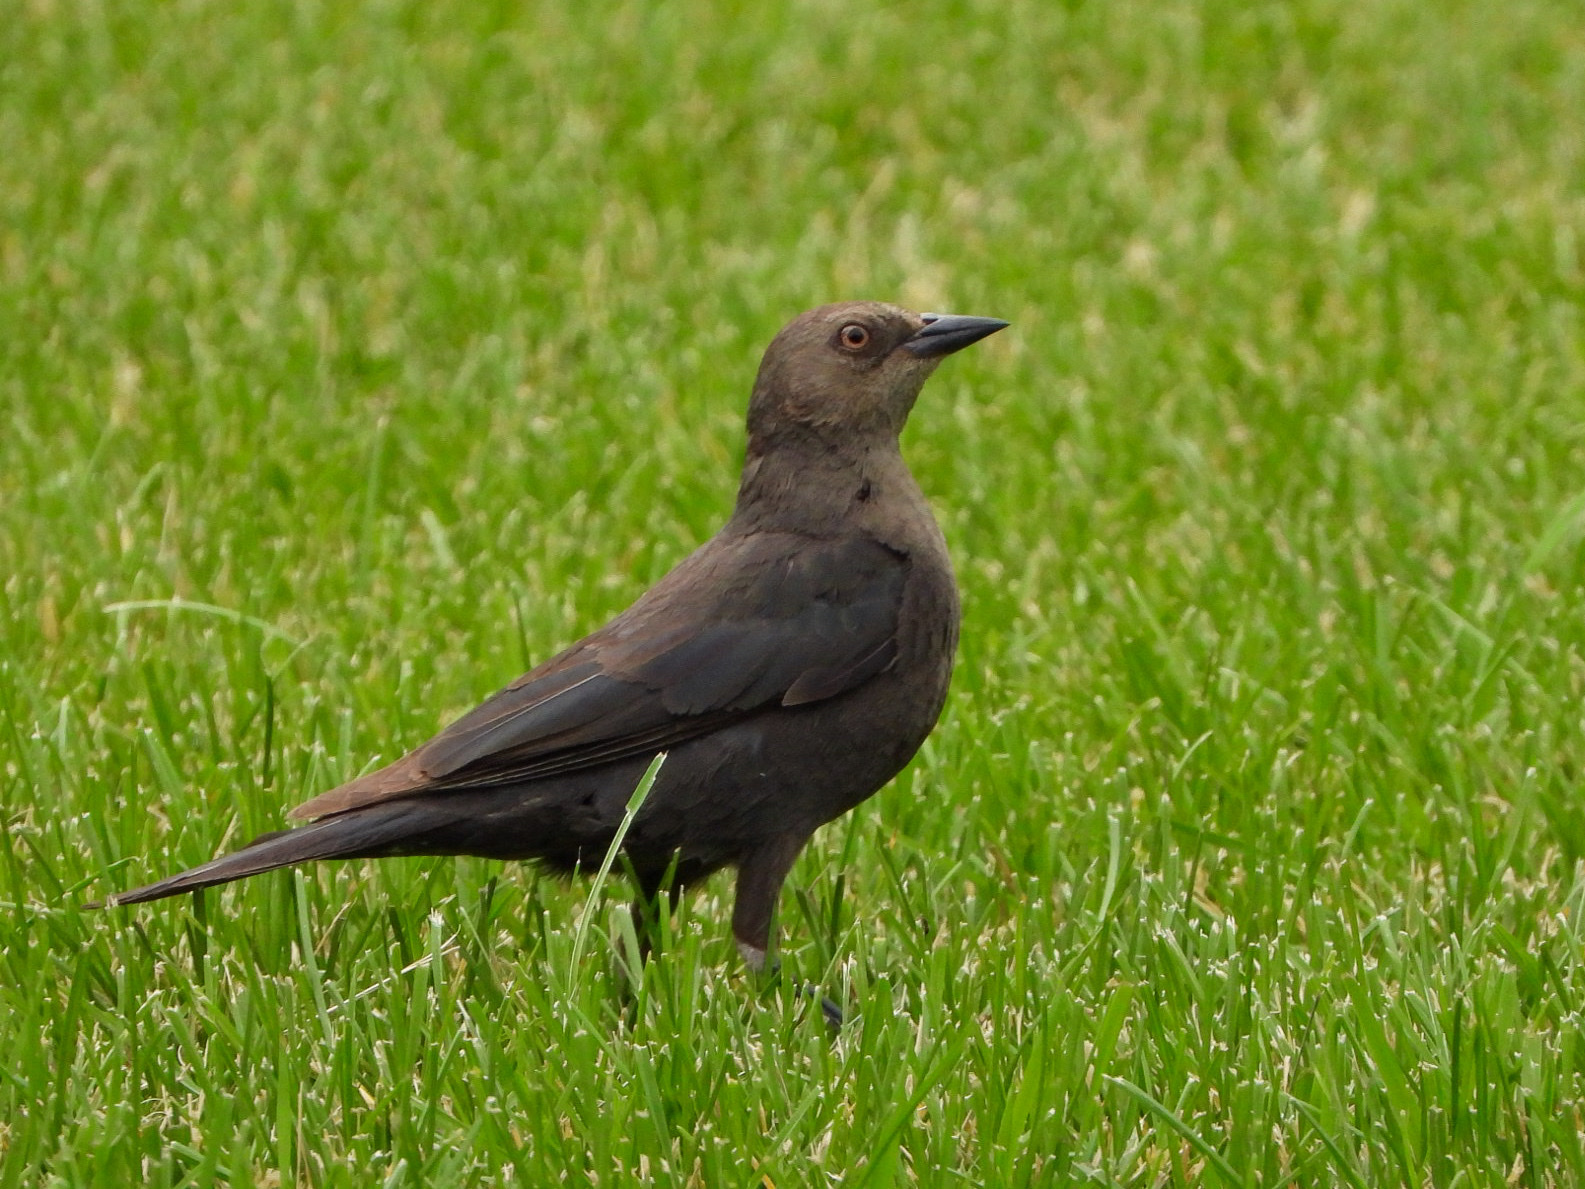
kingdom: Animalia
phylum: Chordata
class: Aves
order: Passeriformes
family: Icteridae
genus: Euphagus
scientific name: Euphagus cyanocephalus
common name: Brewer's blackbird
